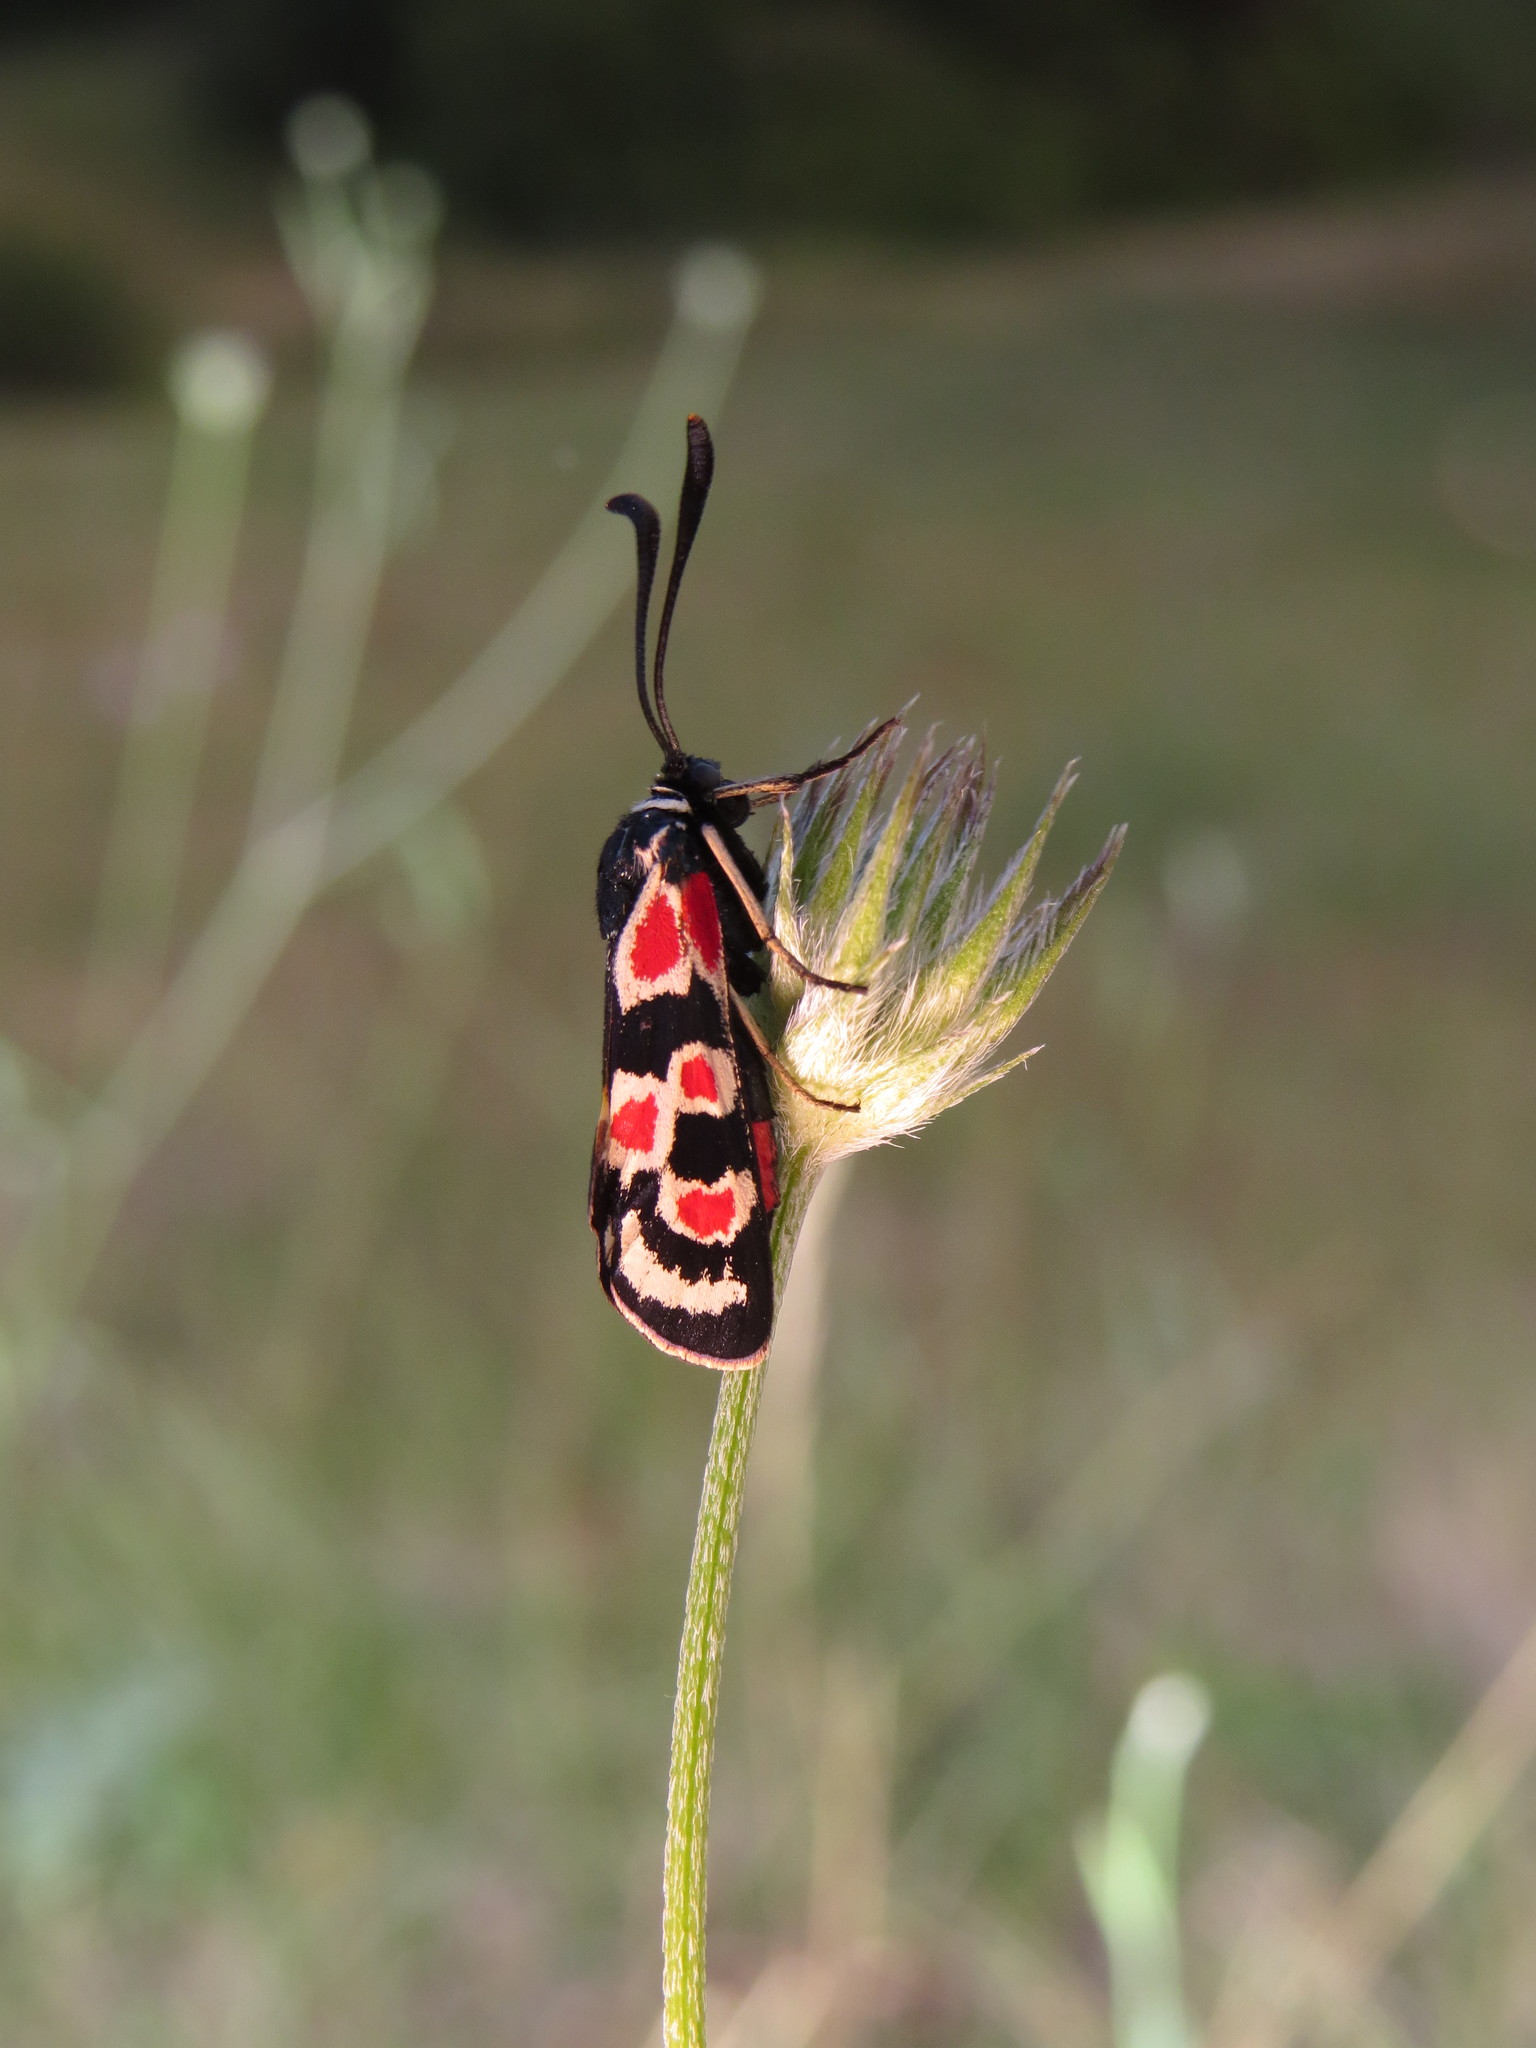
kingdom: Animalia
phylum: Arthropoda
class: Insecta
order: Lepidoptera
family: Zygaenidae
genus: Zygaena
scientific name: Zygaena occitanica
